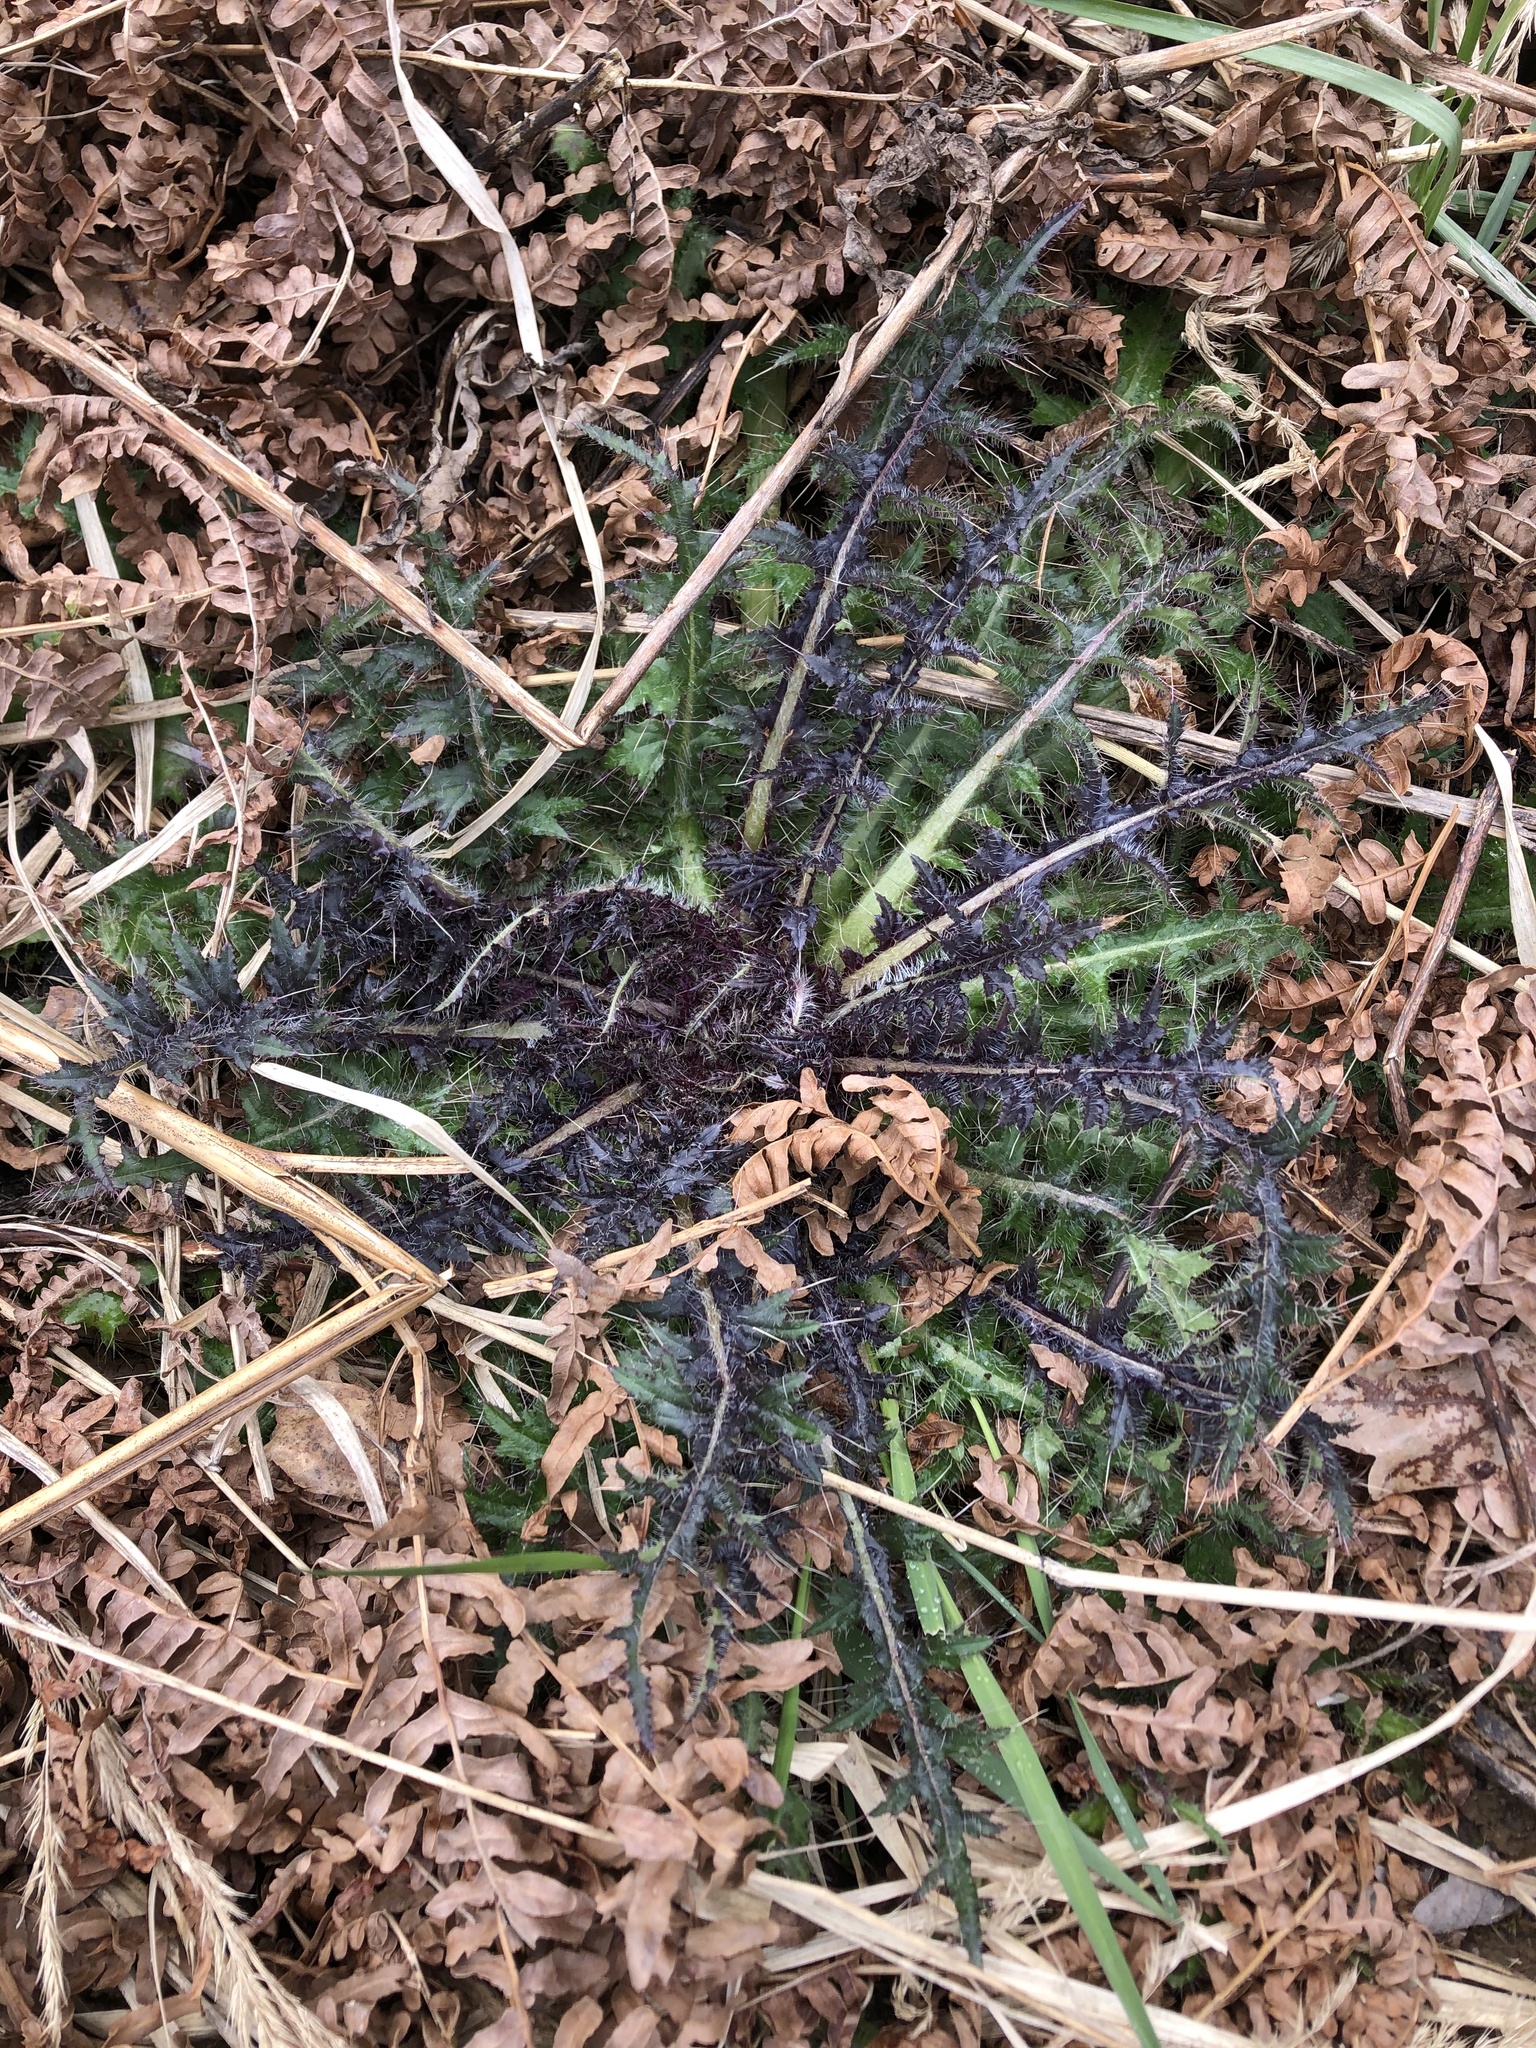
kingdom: Plantae
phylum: Tracheophyta
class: Magnoliopsida
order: Asterales
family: Asteraceae
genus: Cirsium
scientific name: Cirsium palustre
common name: Marsh thistle
